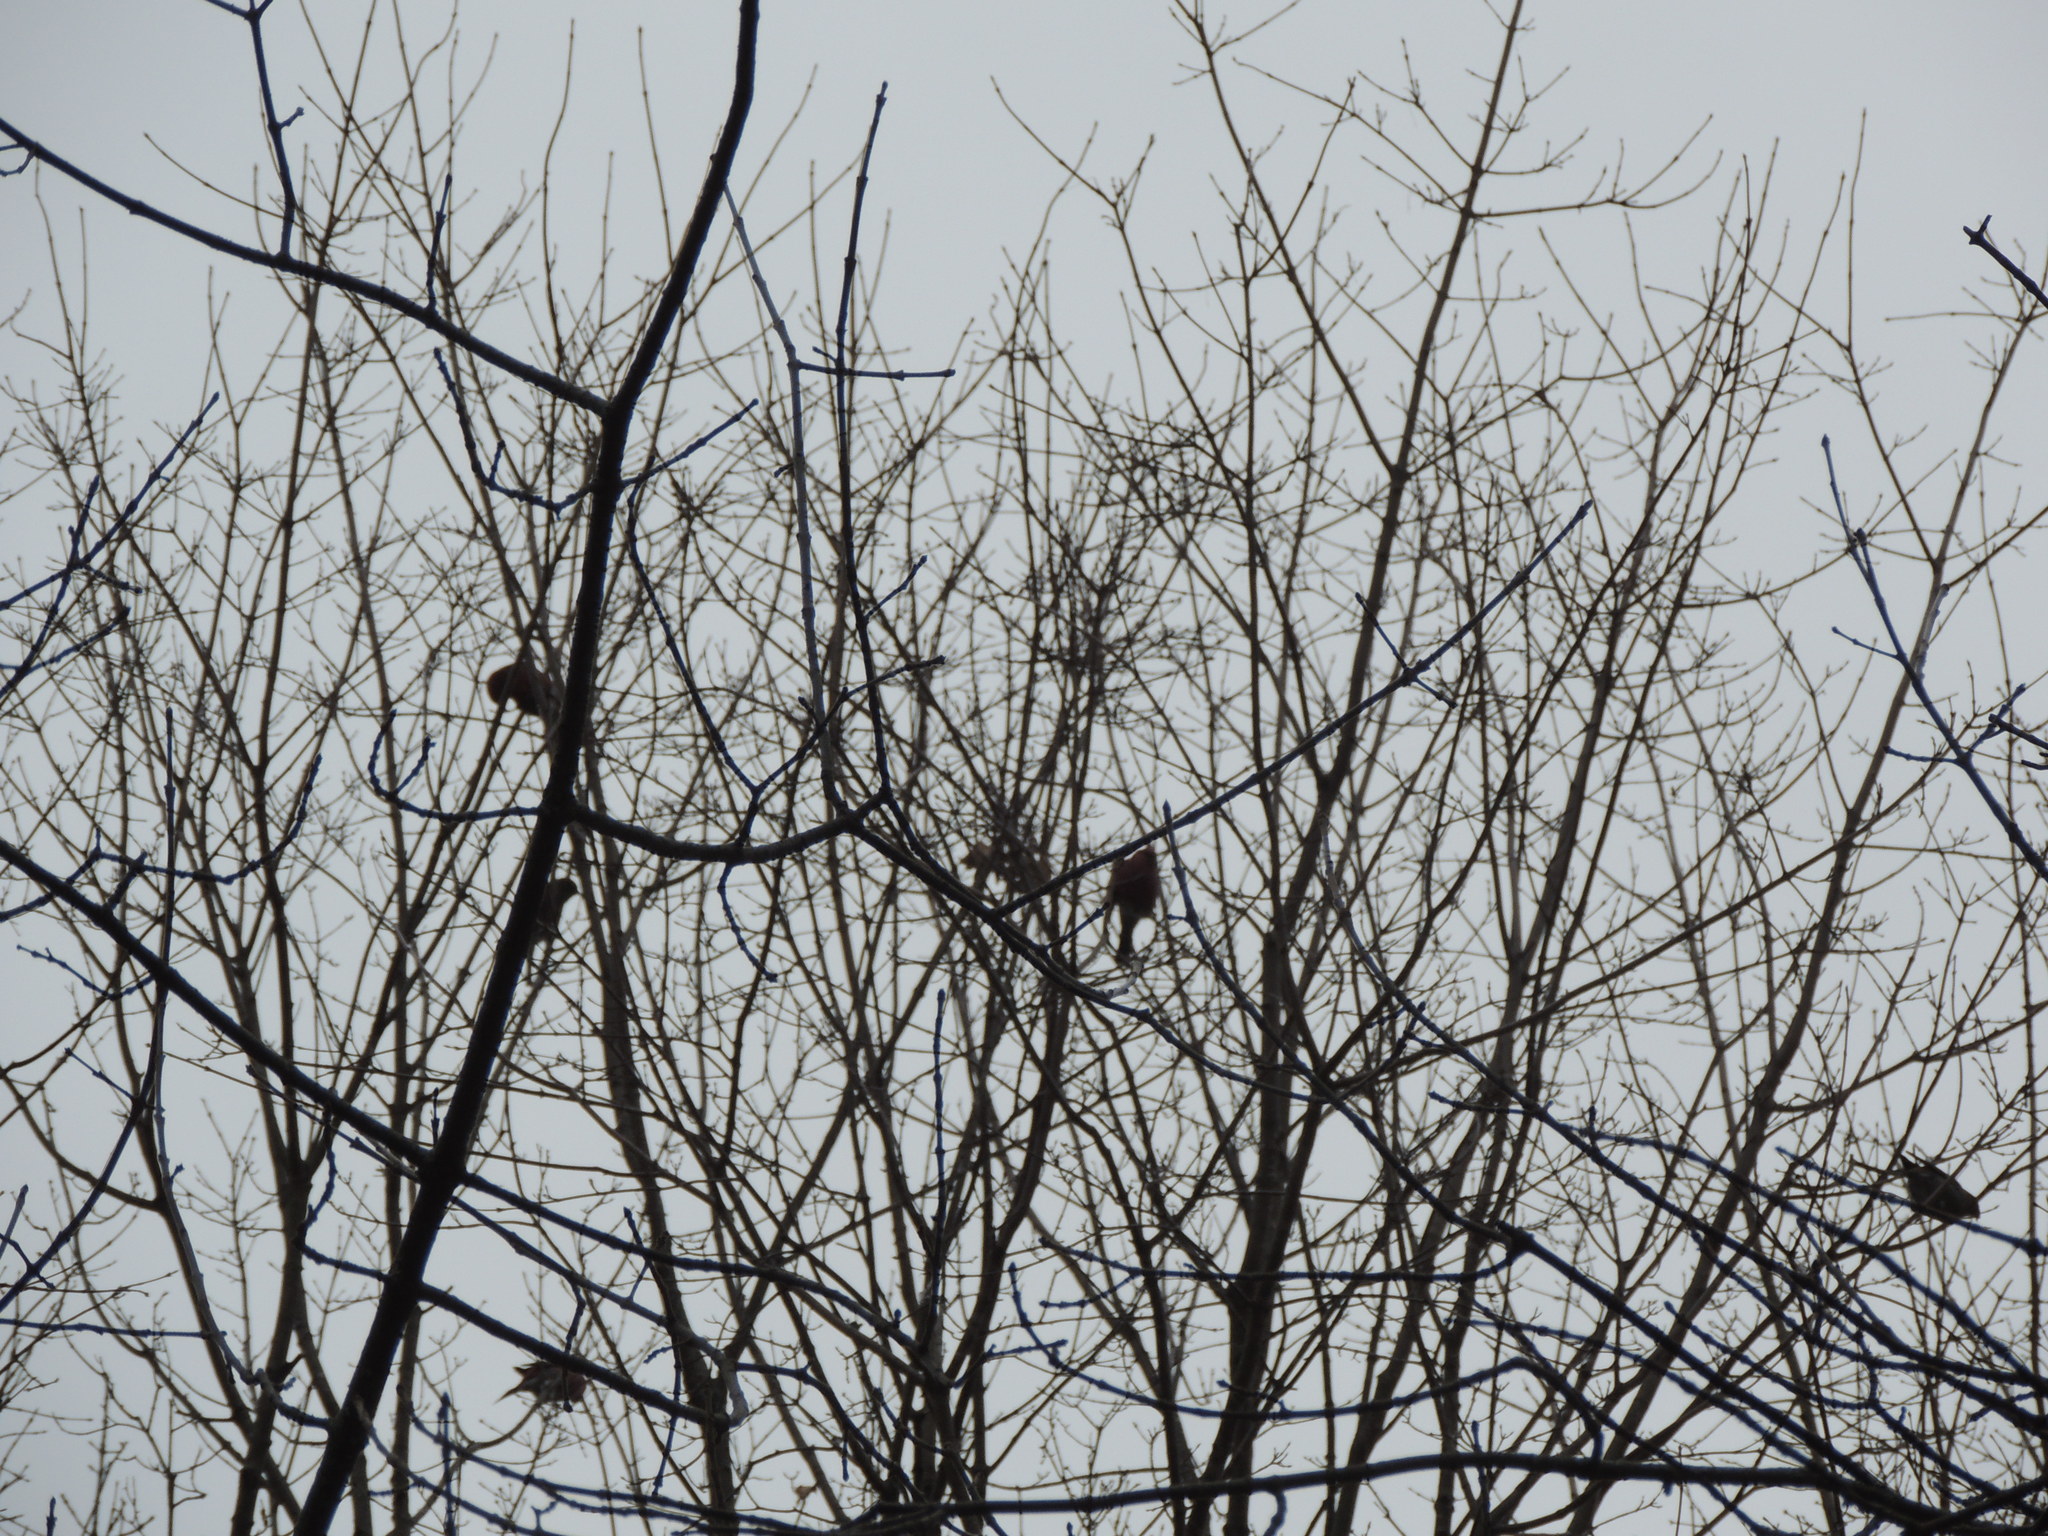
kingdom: Animalia
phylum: Chordata
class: Aves
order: Passeriformes
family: Fringillidae
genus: Pinicola
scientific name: Pinicola enucleator
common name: Pine grosbeak
